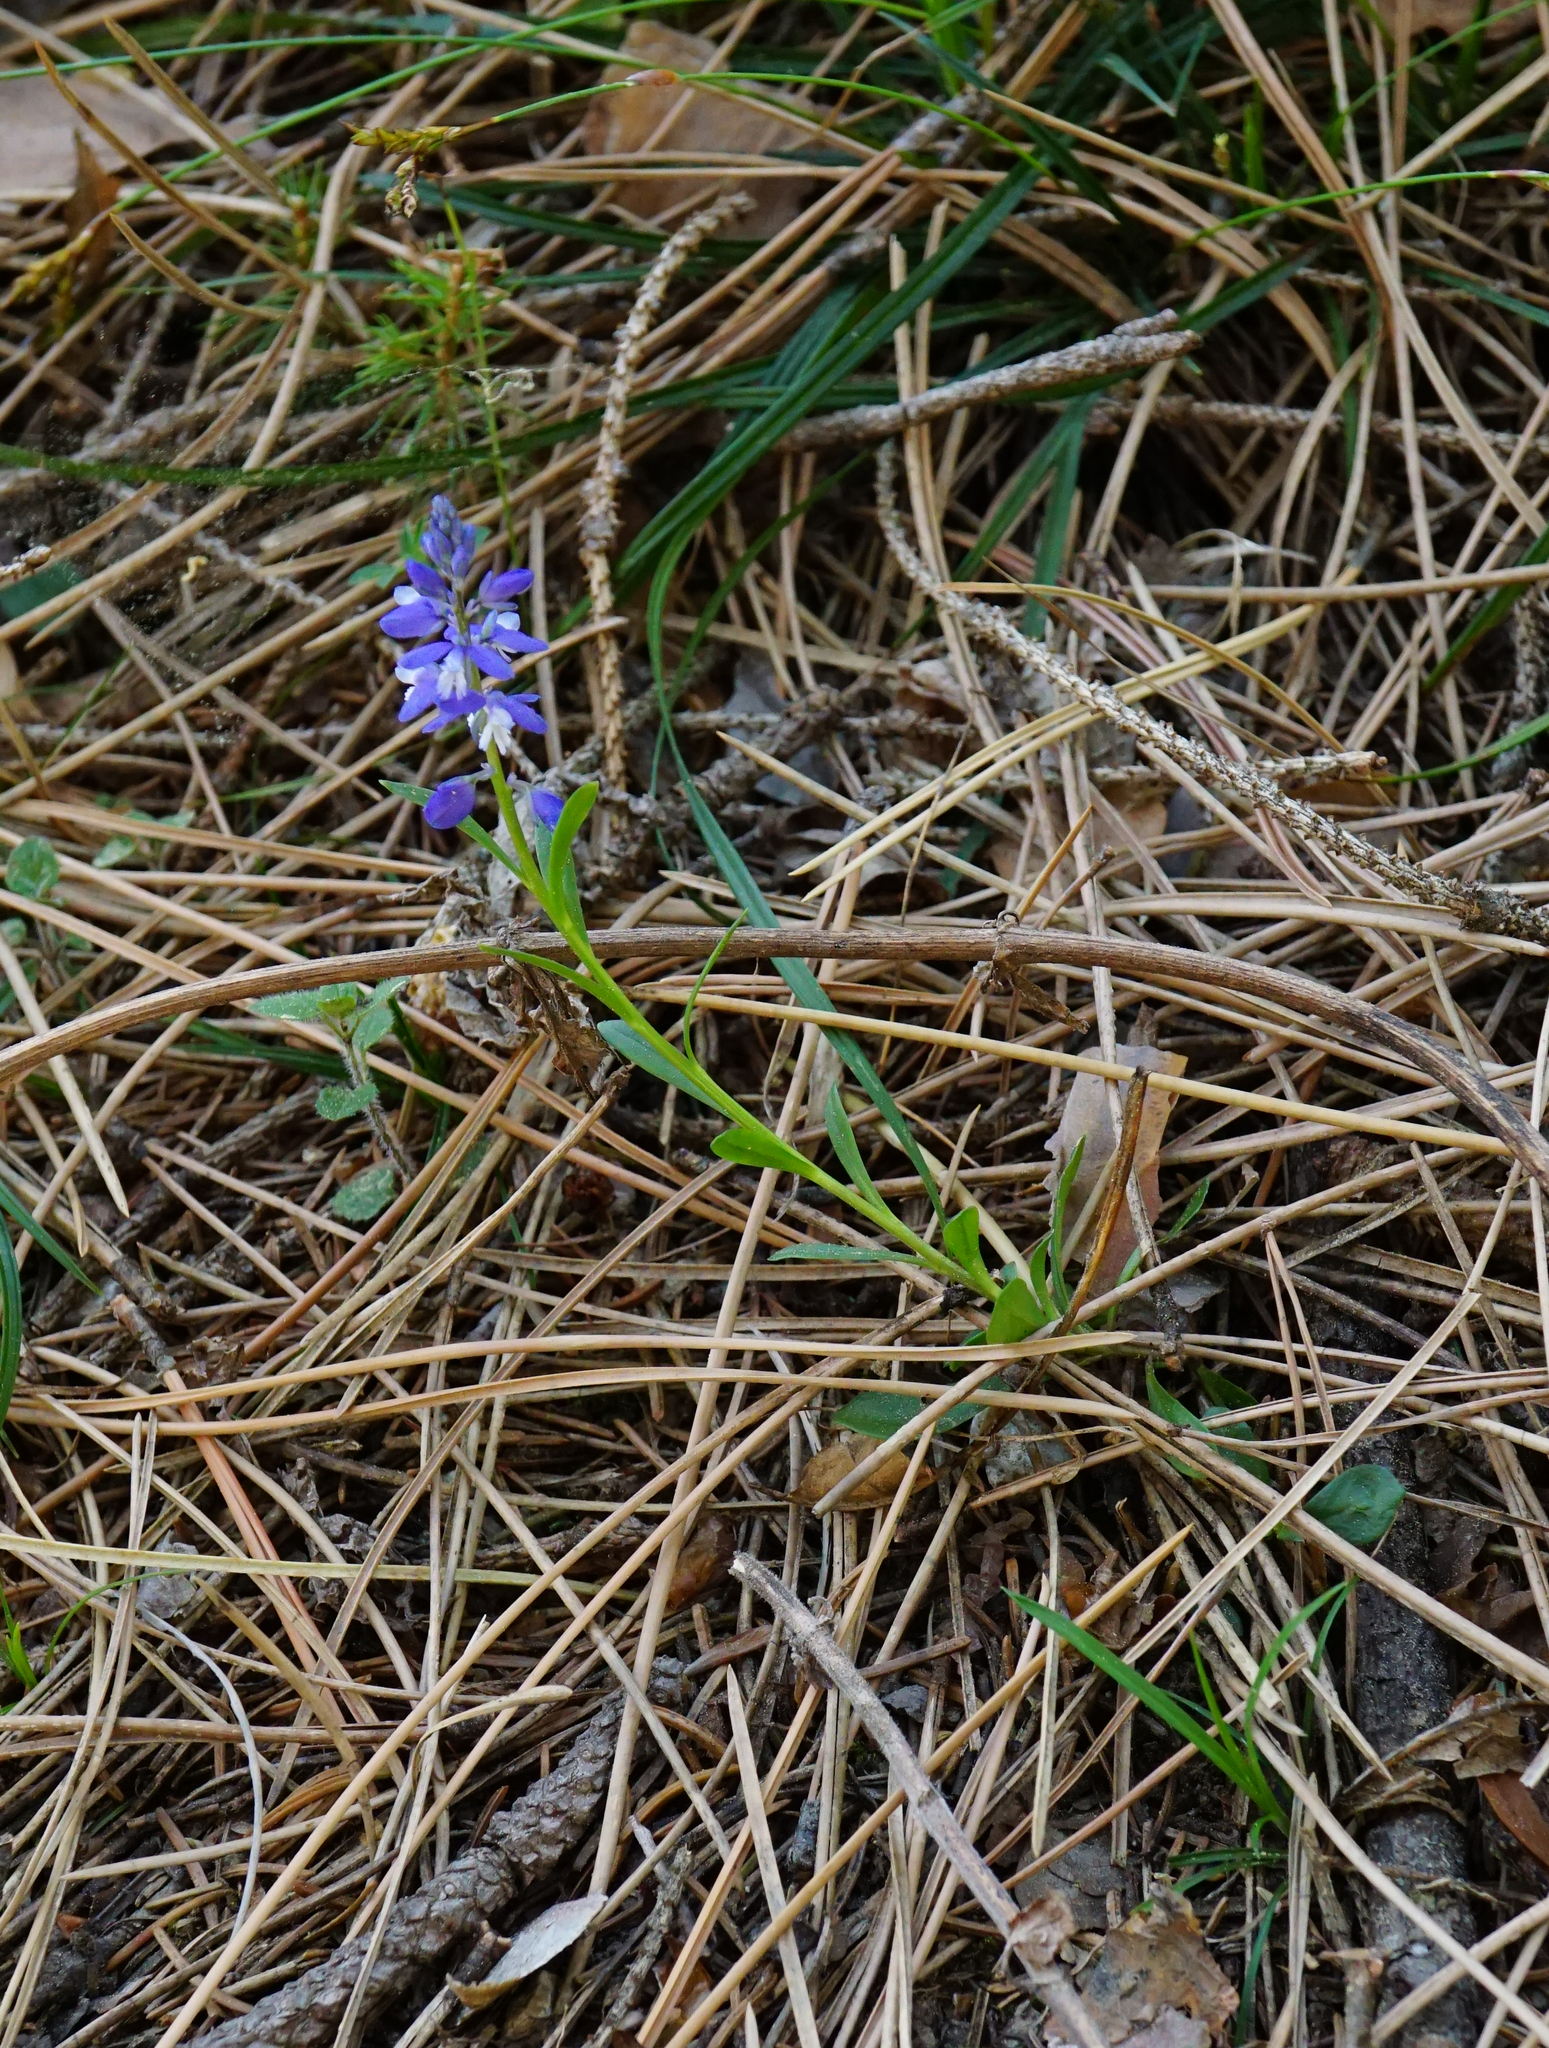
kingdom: Plantae
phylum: Tracheophyta
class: Magnoliopsida
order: Fabales
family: Polygalaceae
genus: Polygala
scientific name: Polygala amara
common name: Milkwort
